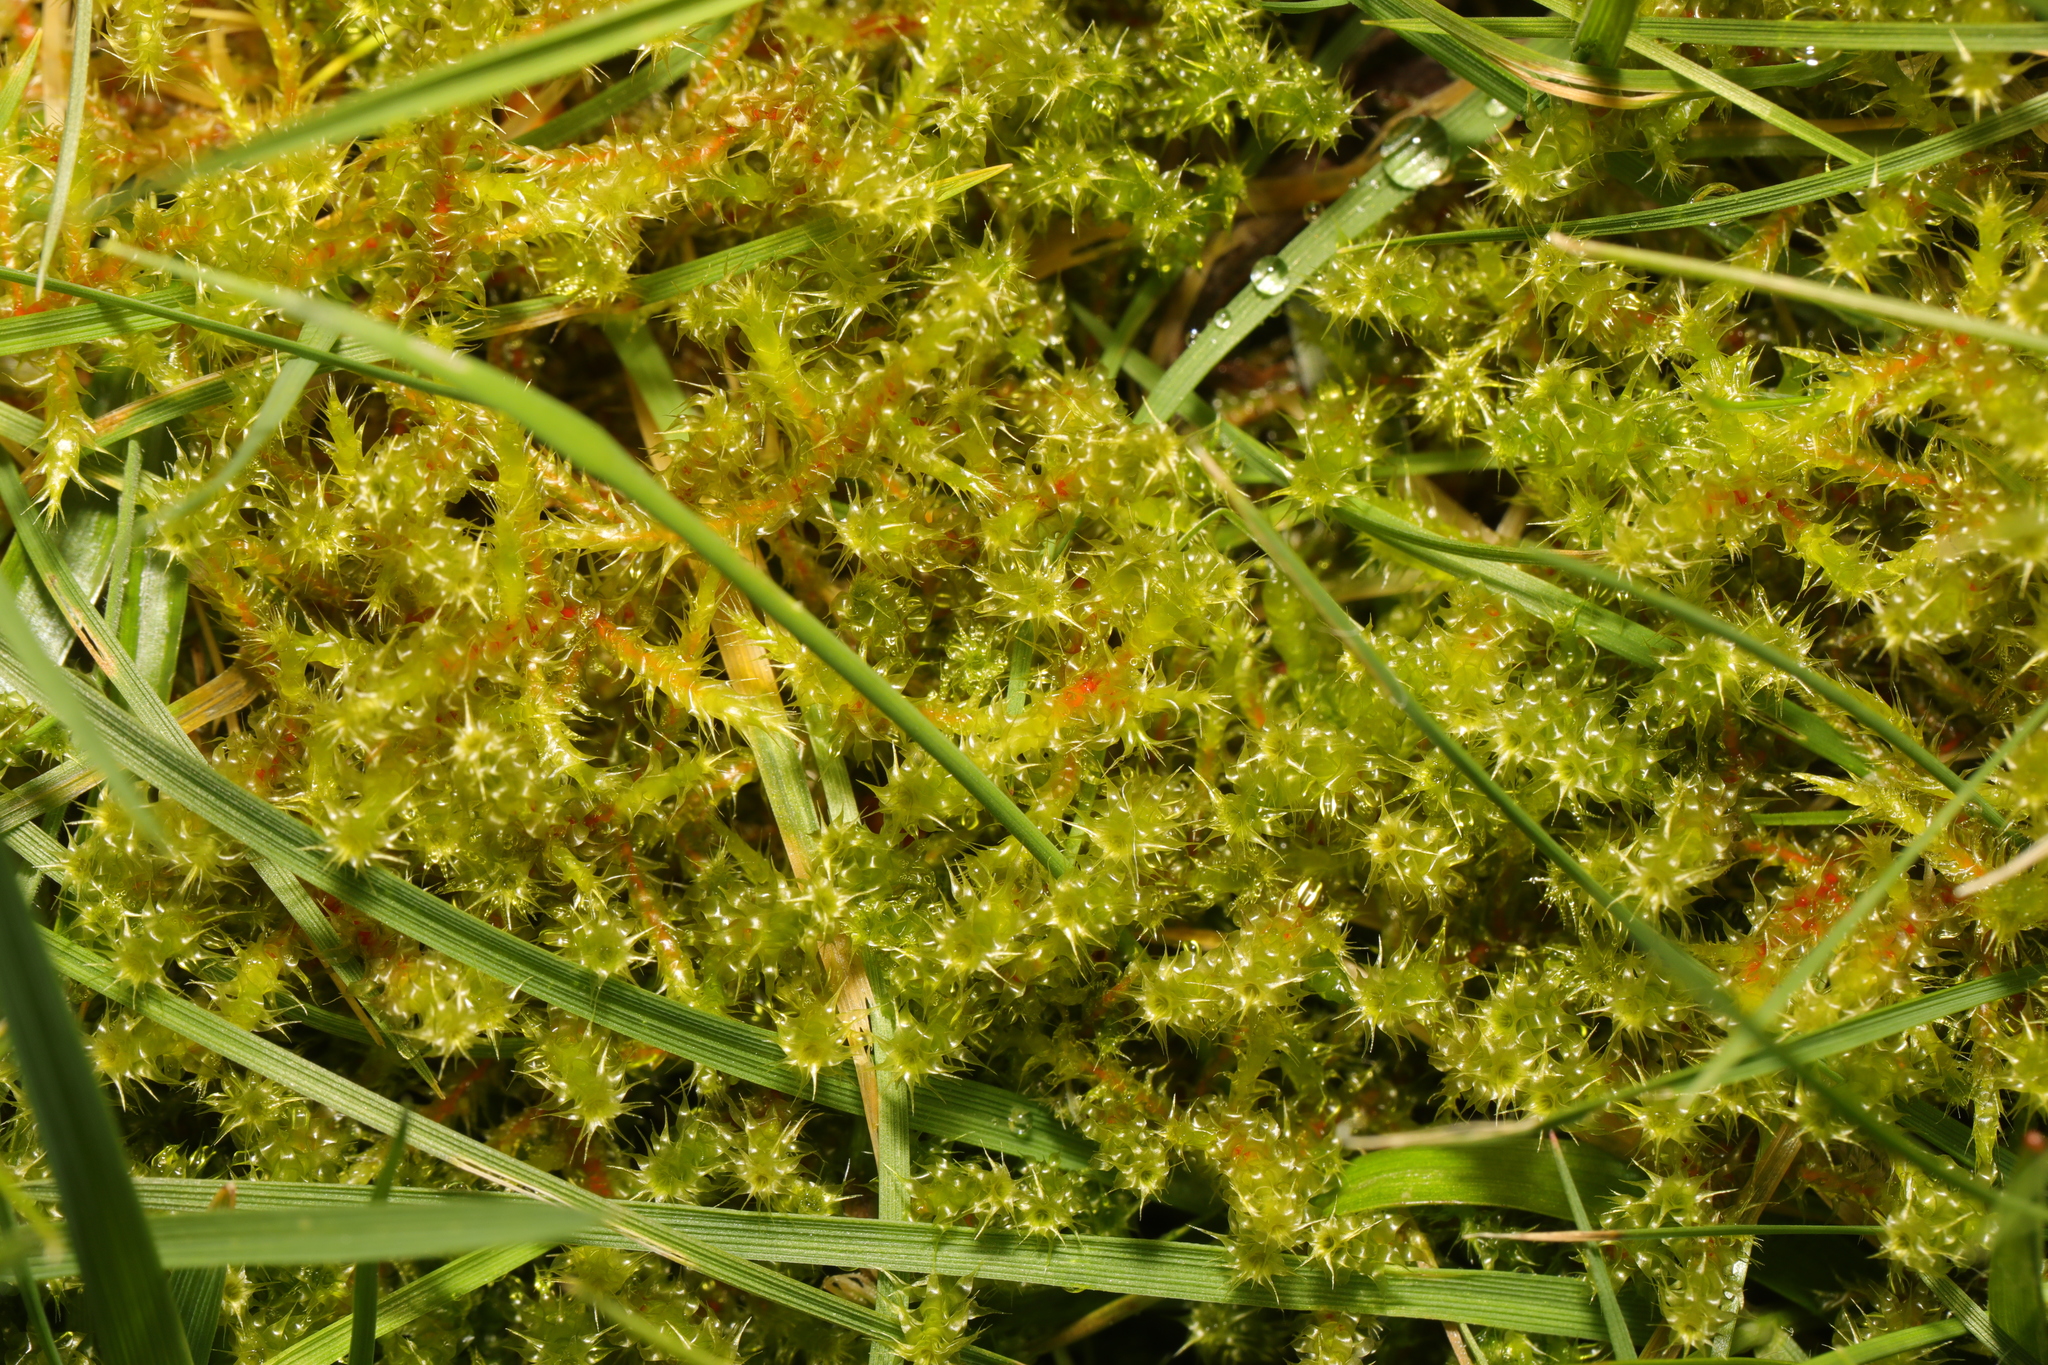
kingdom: Plantae
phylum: Bryophyta
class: Bryopsida
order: Hypnales
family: Hylocomiaceae
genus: Rhytidiadelphus
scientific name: Rhytidiadelphus squarrosus
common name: Springy turf-moss
